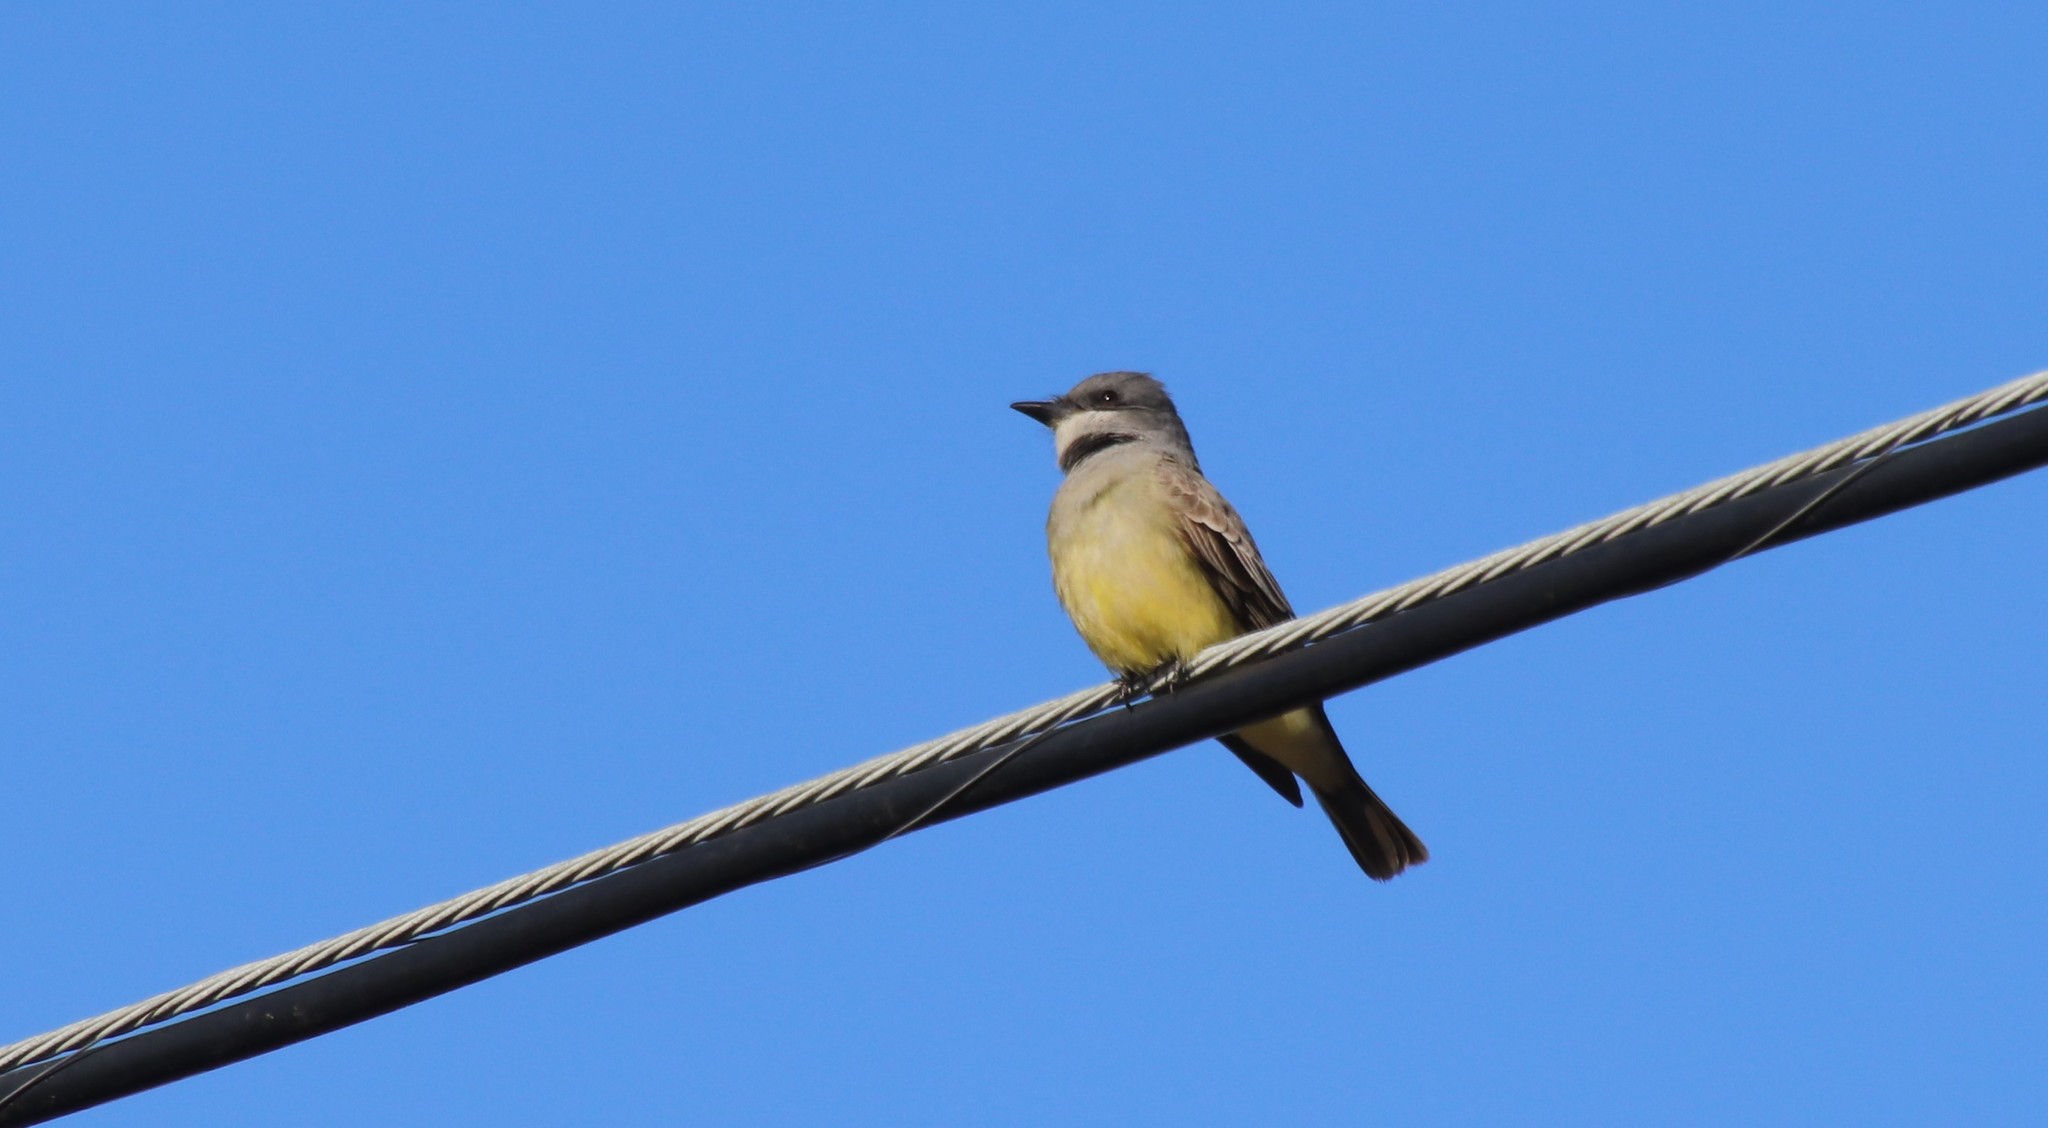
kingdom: Animalia
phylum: Chordata
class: Aves
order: Passeriformes
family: Tyrannidae
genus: Tyrannus
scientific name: Tyrannus vociferans
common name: Cassin's kingbird
